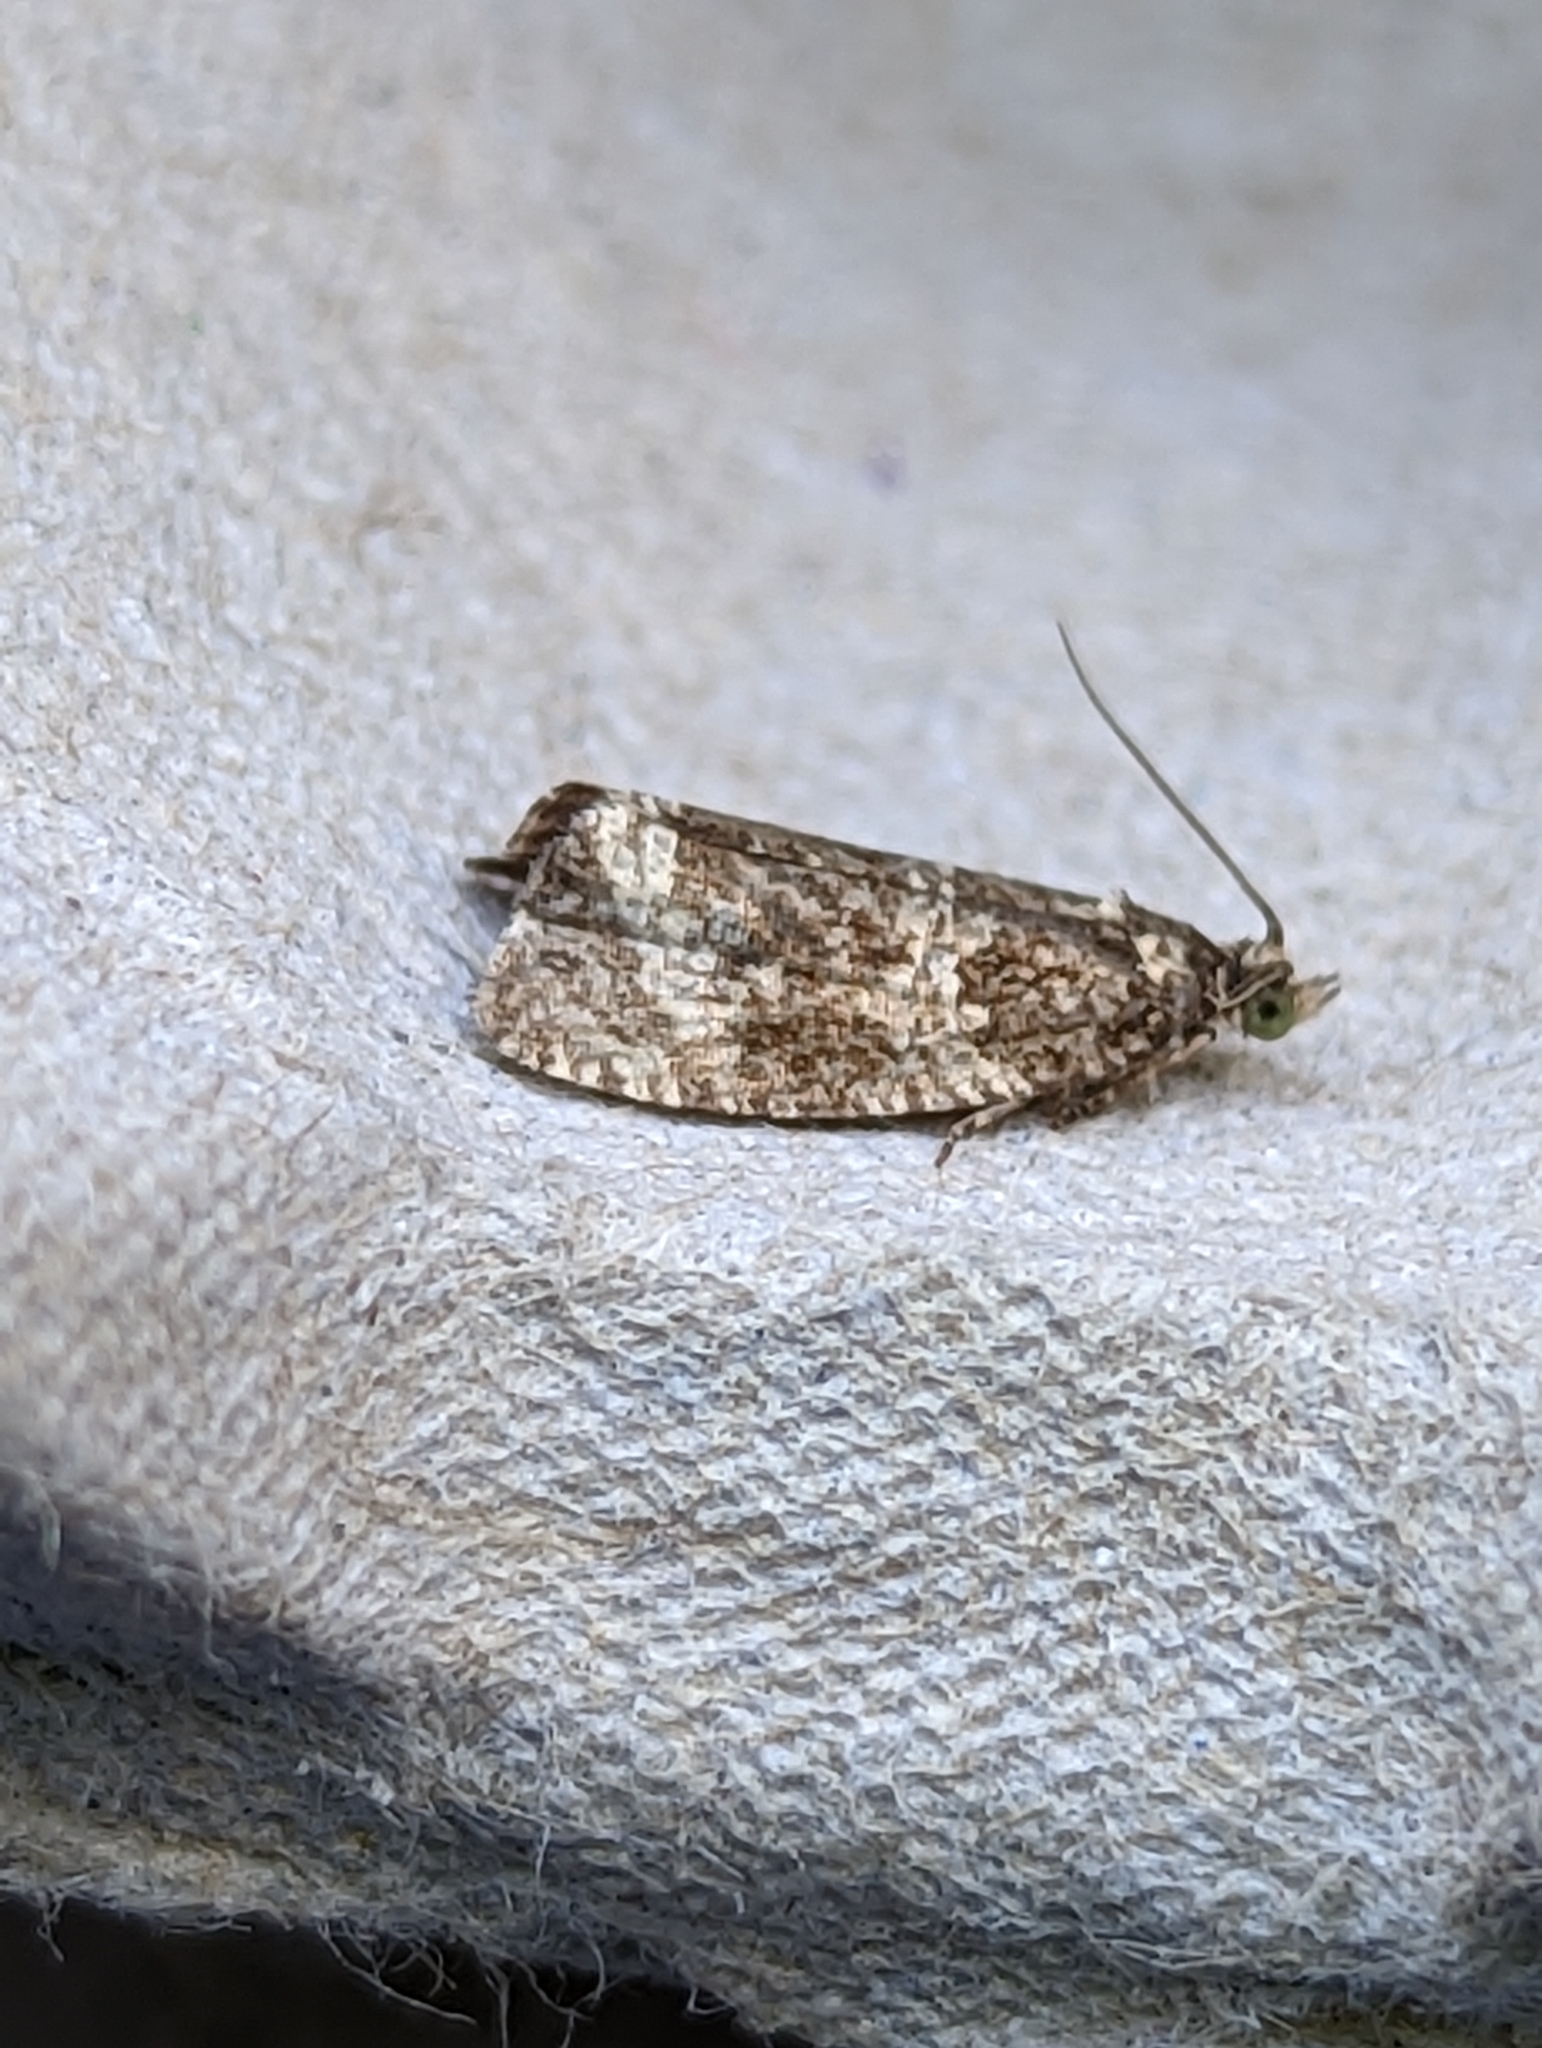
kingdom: Animalia
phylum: Arthropoda
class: Insecta
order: Lepidoptera
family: Tortricidae
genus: Syricoris
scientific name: Syricoris lacunana
